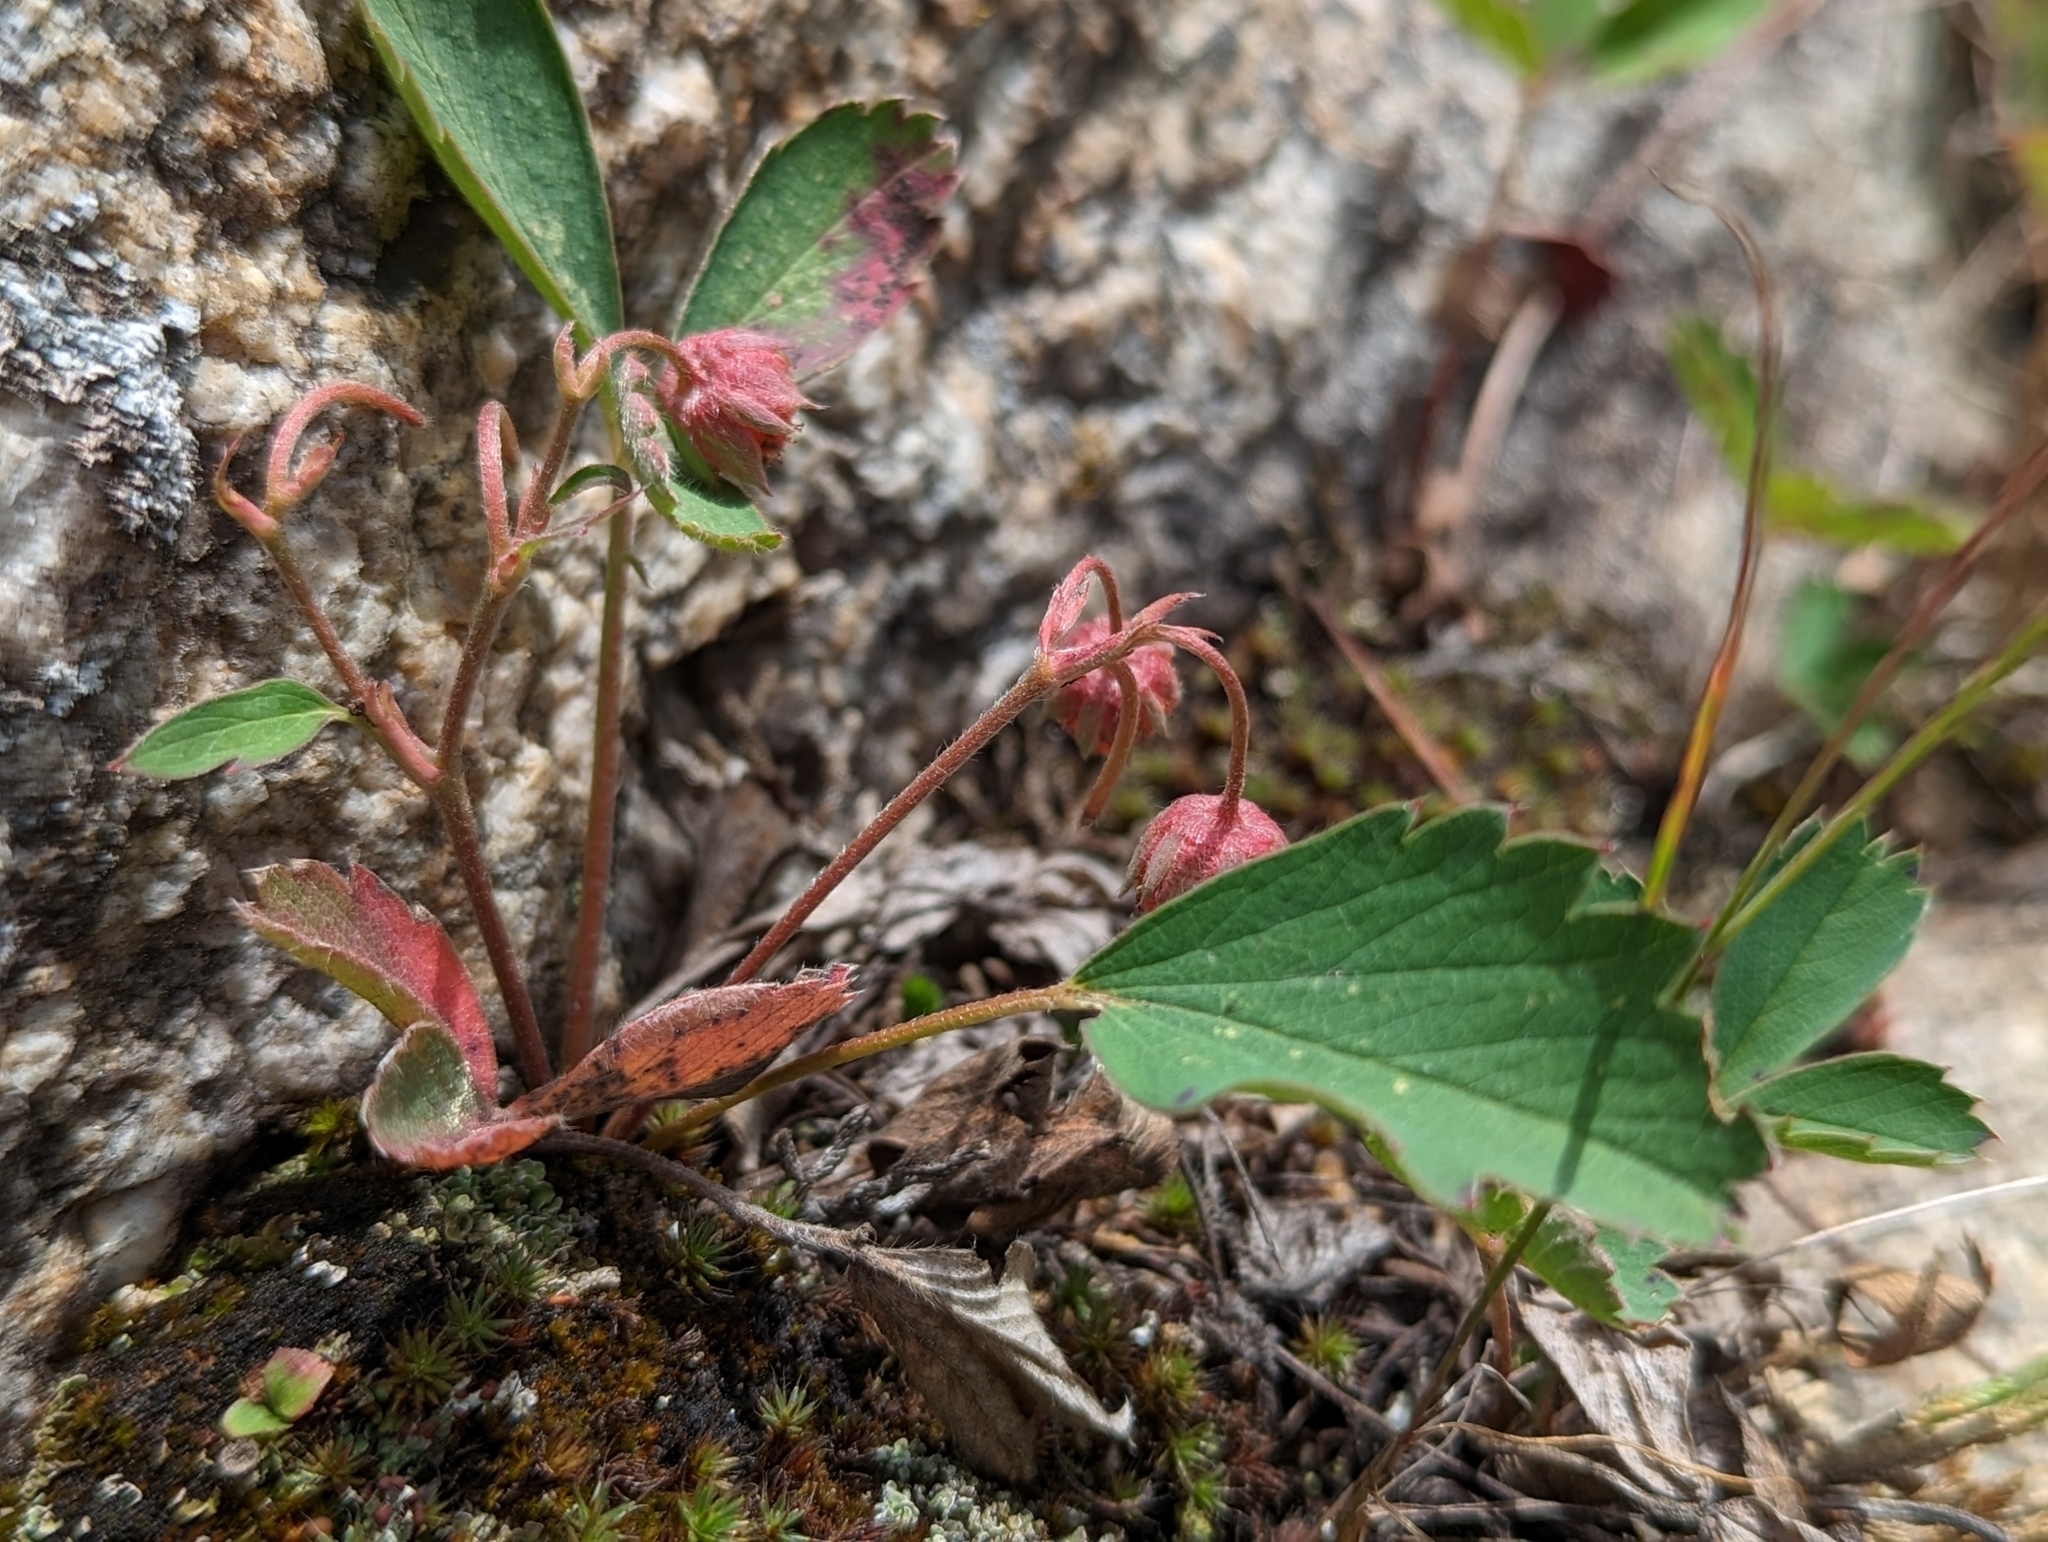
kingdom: Plantae
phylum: Tracheophyta
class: Magnoliopsida
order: Rosales
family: Rosaceae
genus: Fragaria
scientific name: Fragaria virginiana
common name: Thickleaved wild strawberry
